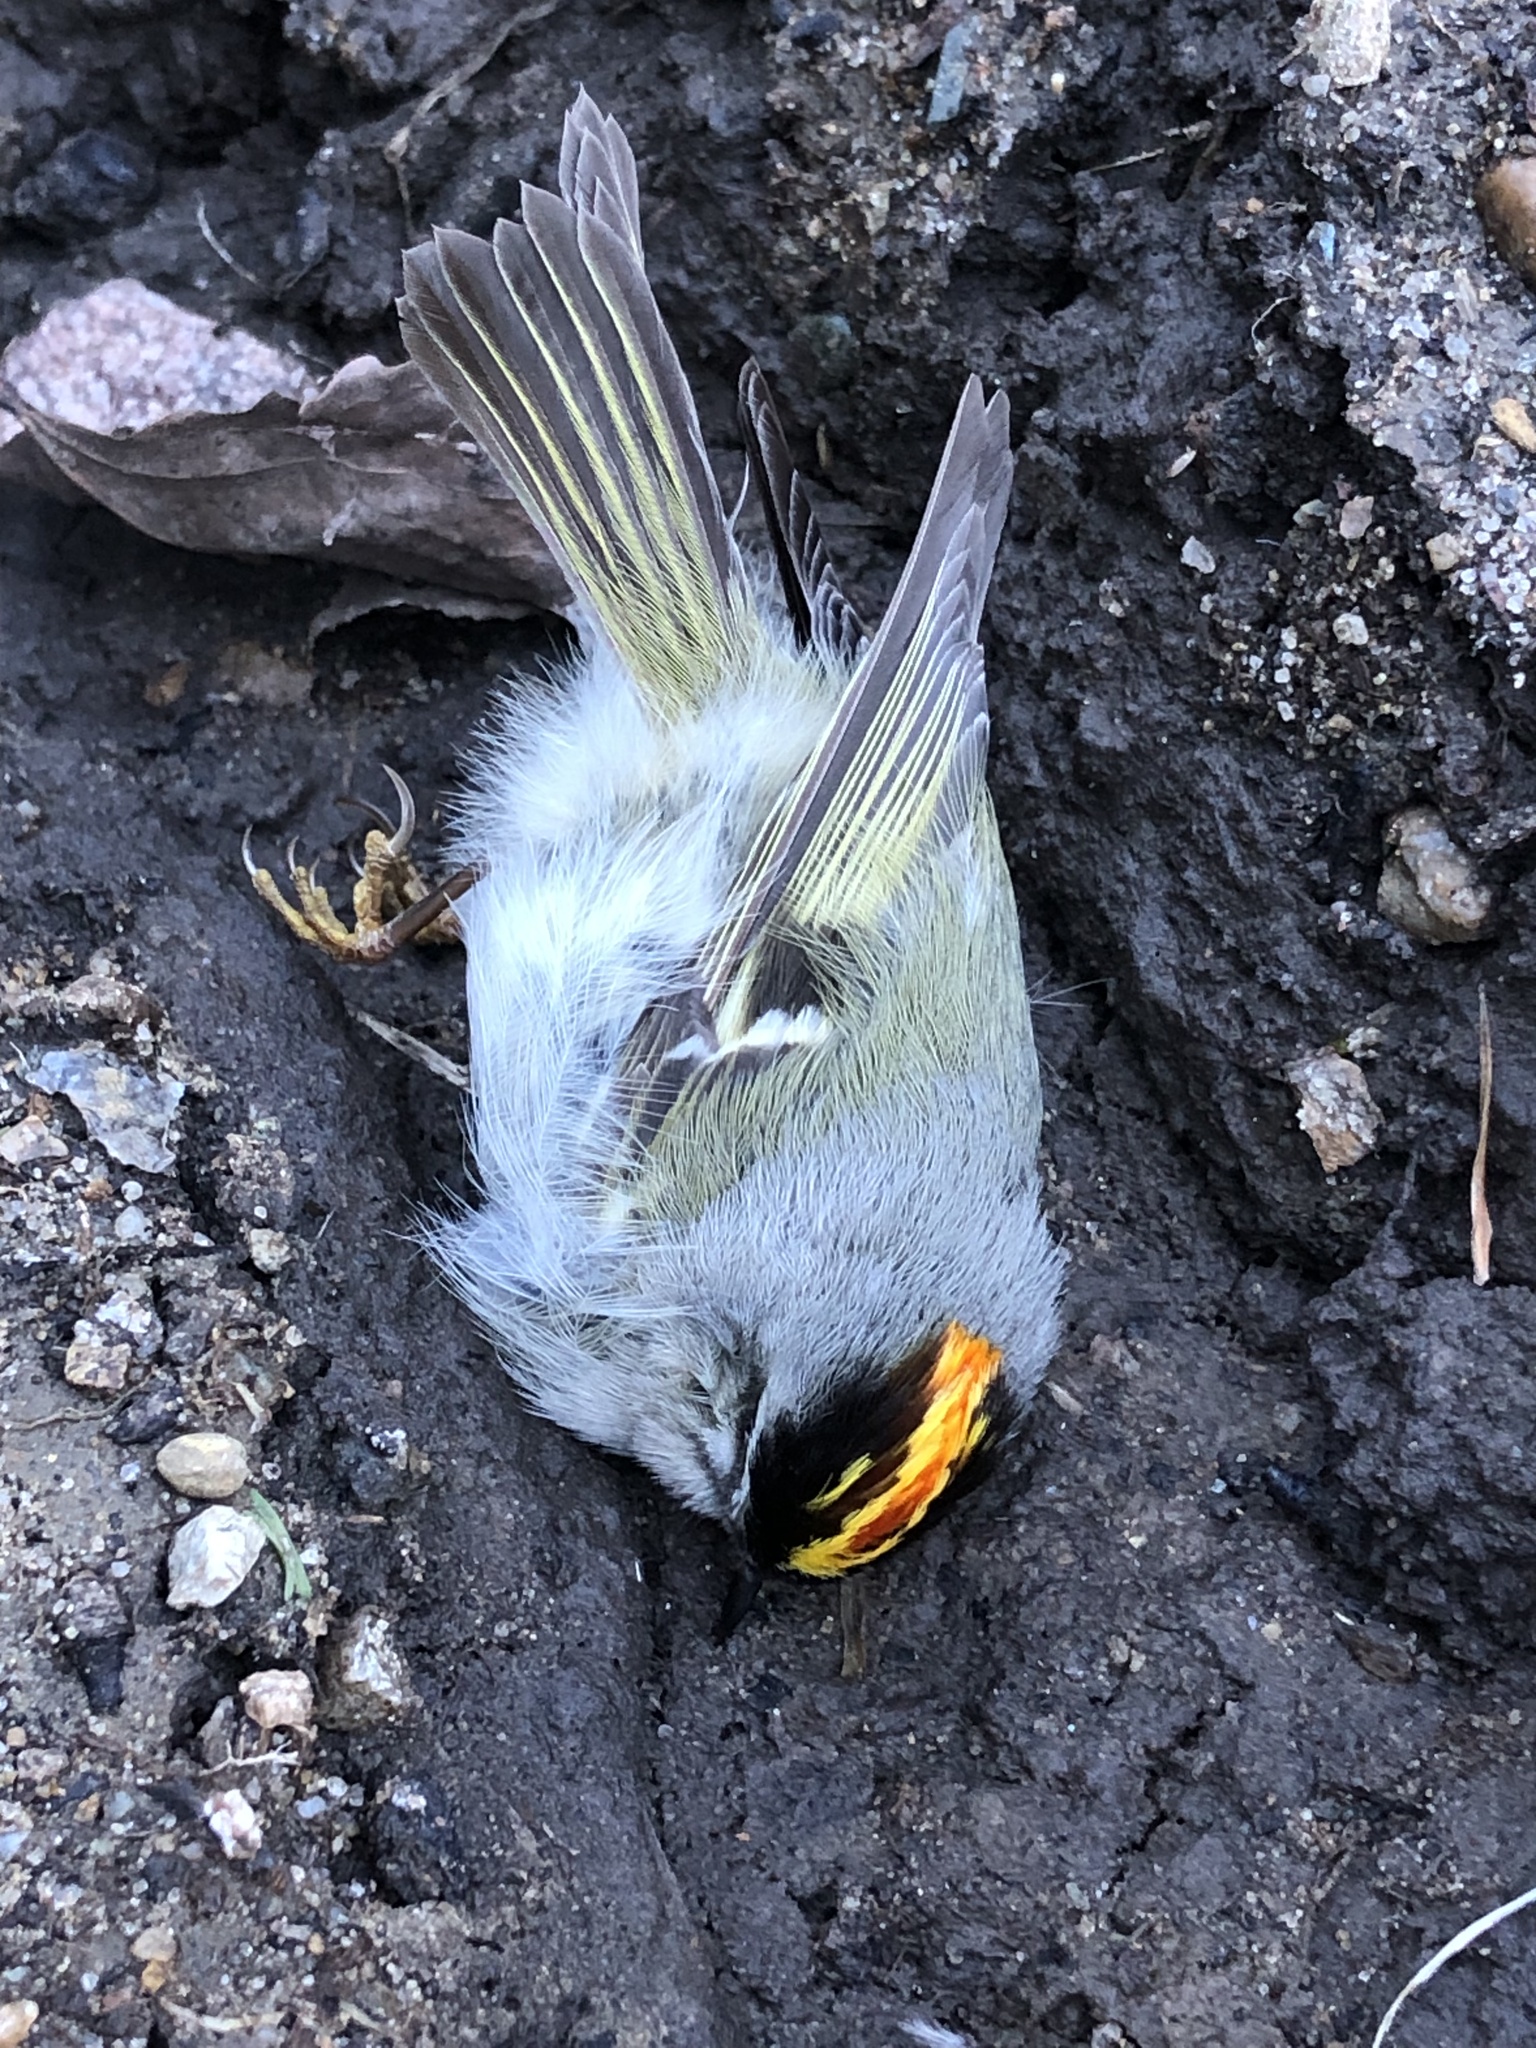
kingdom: Animalia
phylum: Chordata
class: Aves
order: Passeriformes
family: Regulidae
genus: Regulus
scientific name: Regulus satrapa
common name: Golden-crowned kinglet
